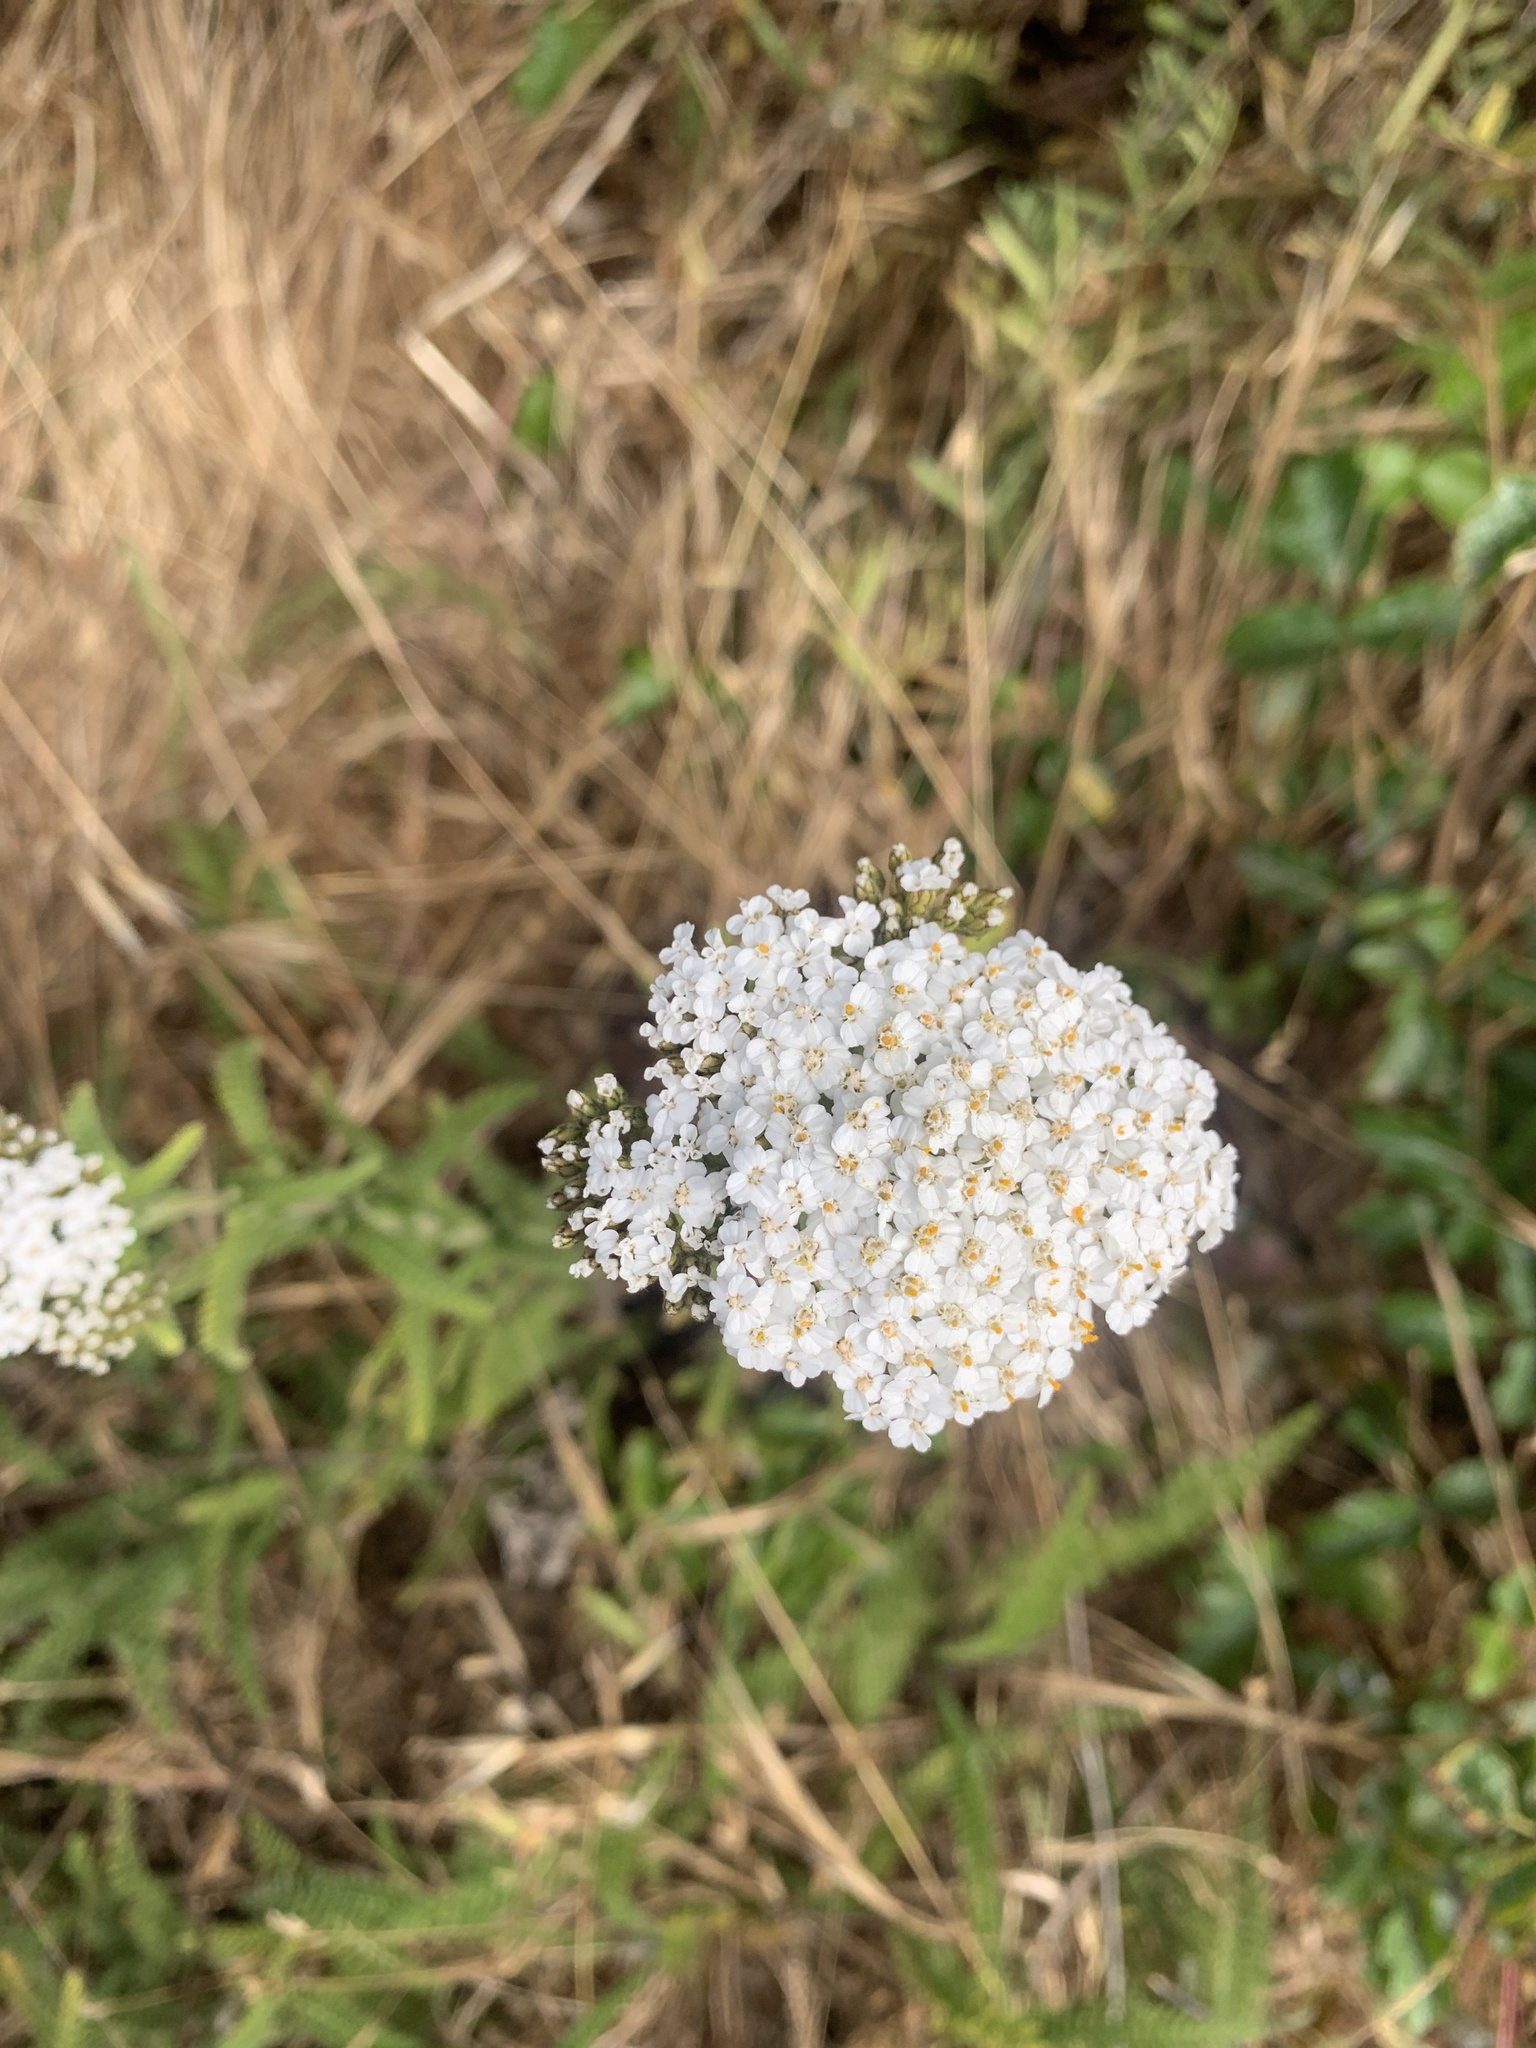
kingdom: Plantae
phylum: Tracheophyta
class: Magnoliopsida
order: Asterales
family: Asteraceae
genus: Achillea
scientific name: Achillea millefolium
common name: Yarrow
